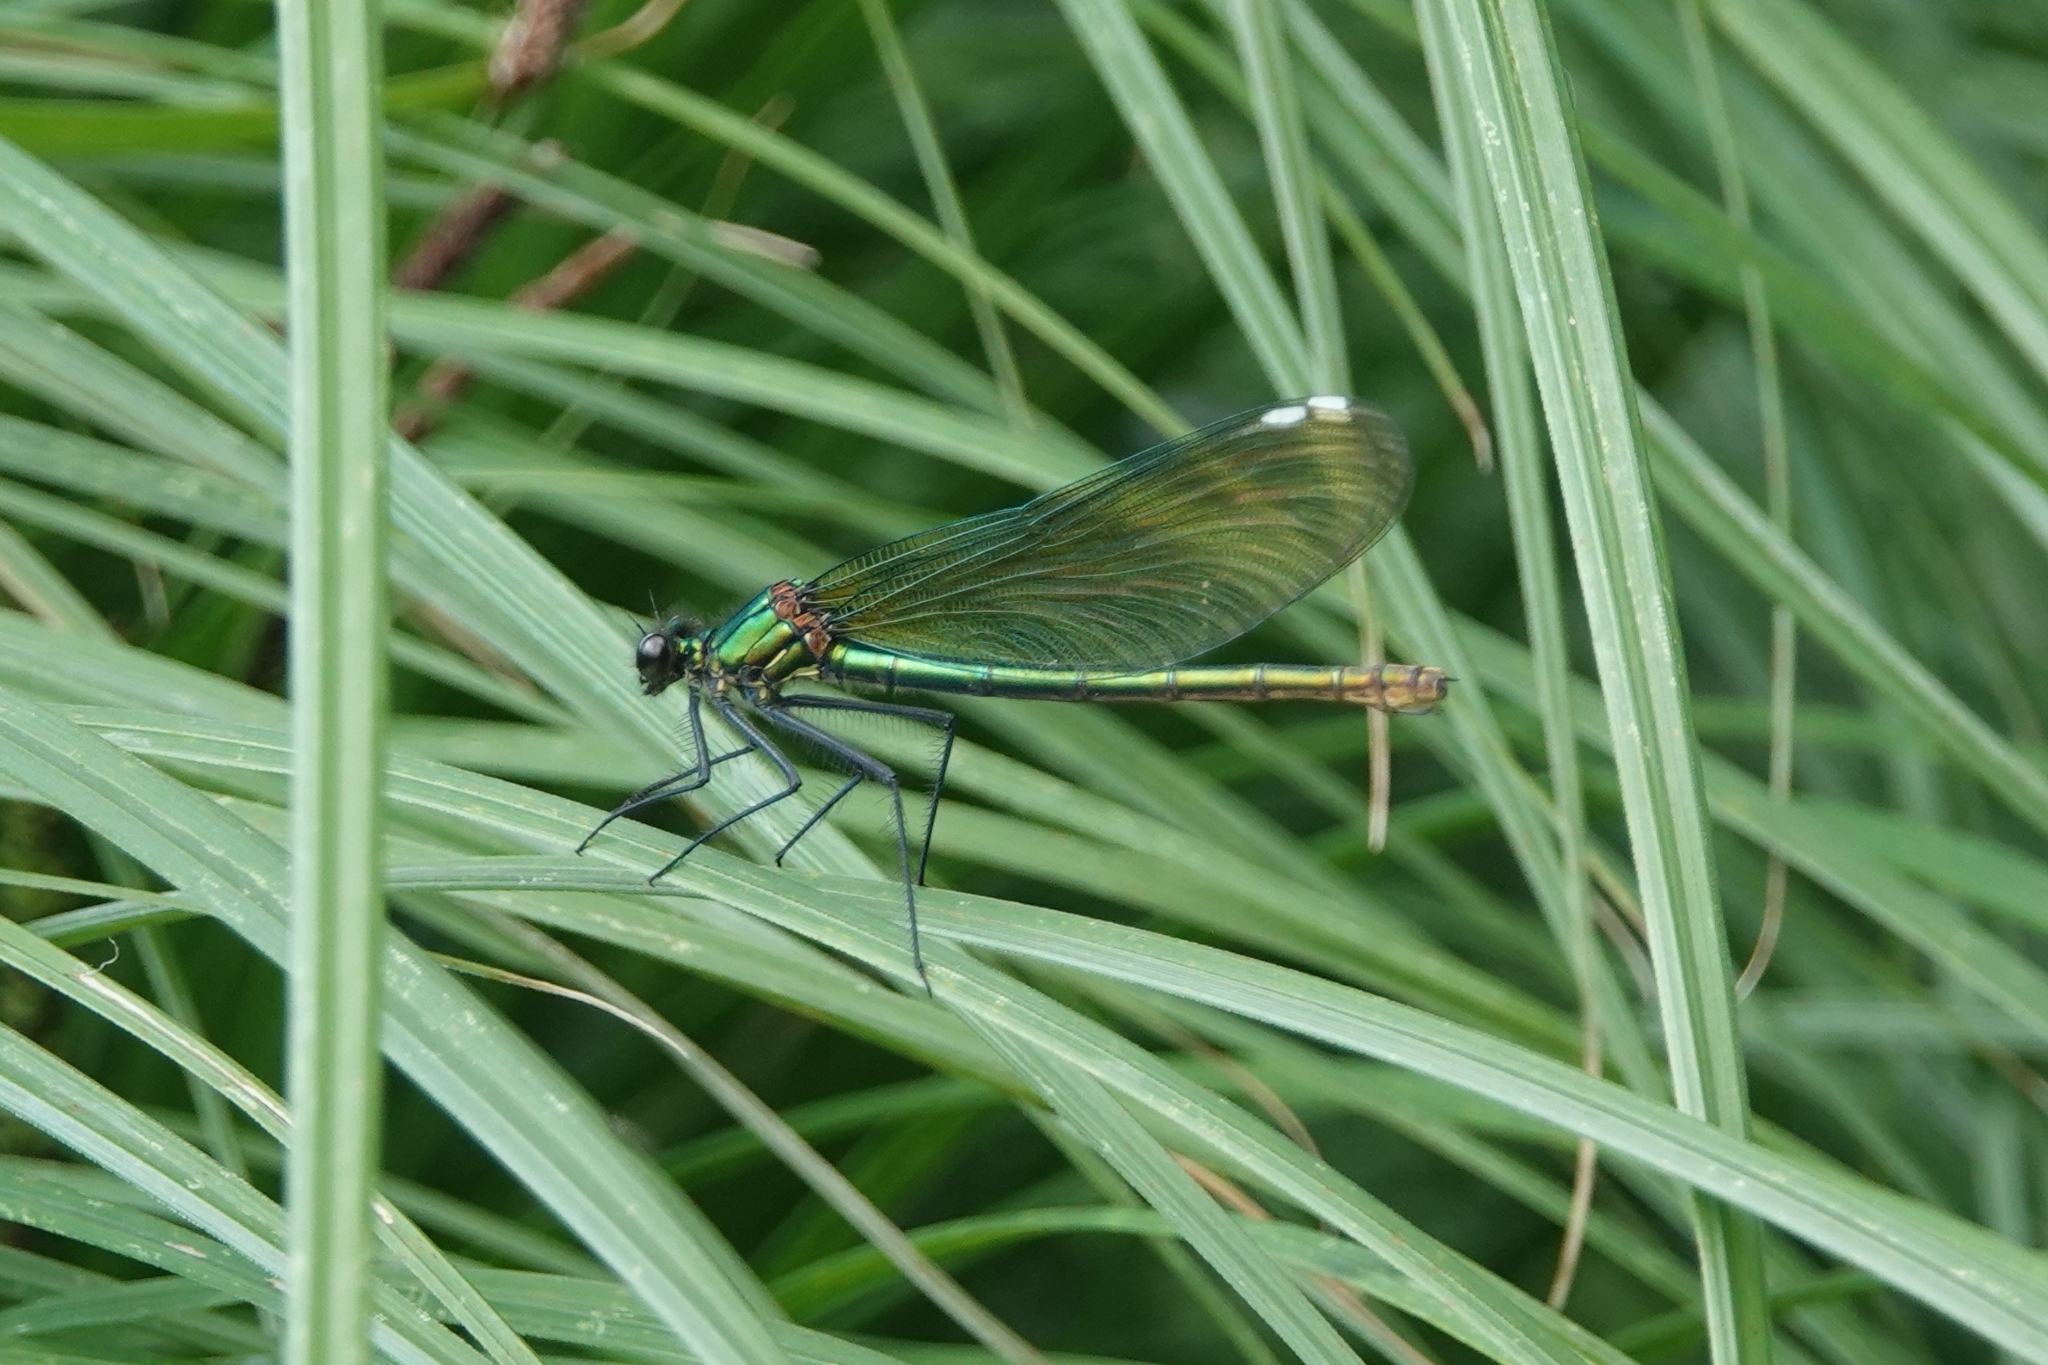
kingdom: Animalia
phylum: Arthropoda
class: Insecta
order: Odonata
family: Calopterygidae
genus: Calopteryx
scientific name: Calopteryx splendens
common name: Banded demoiselle
